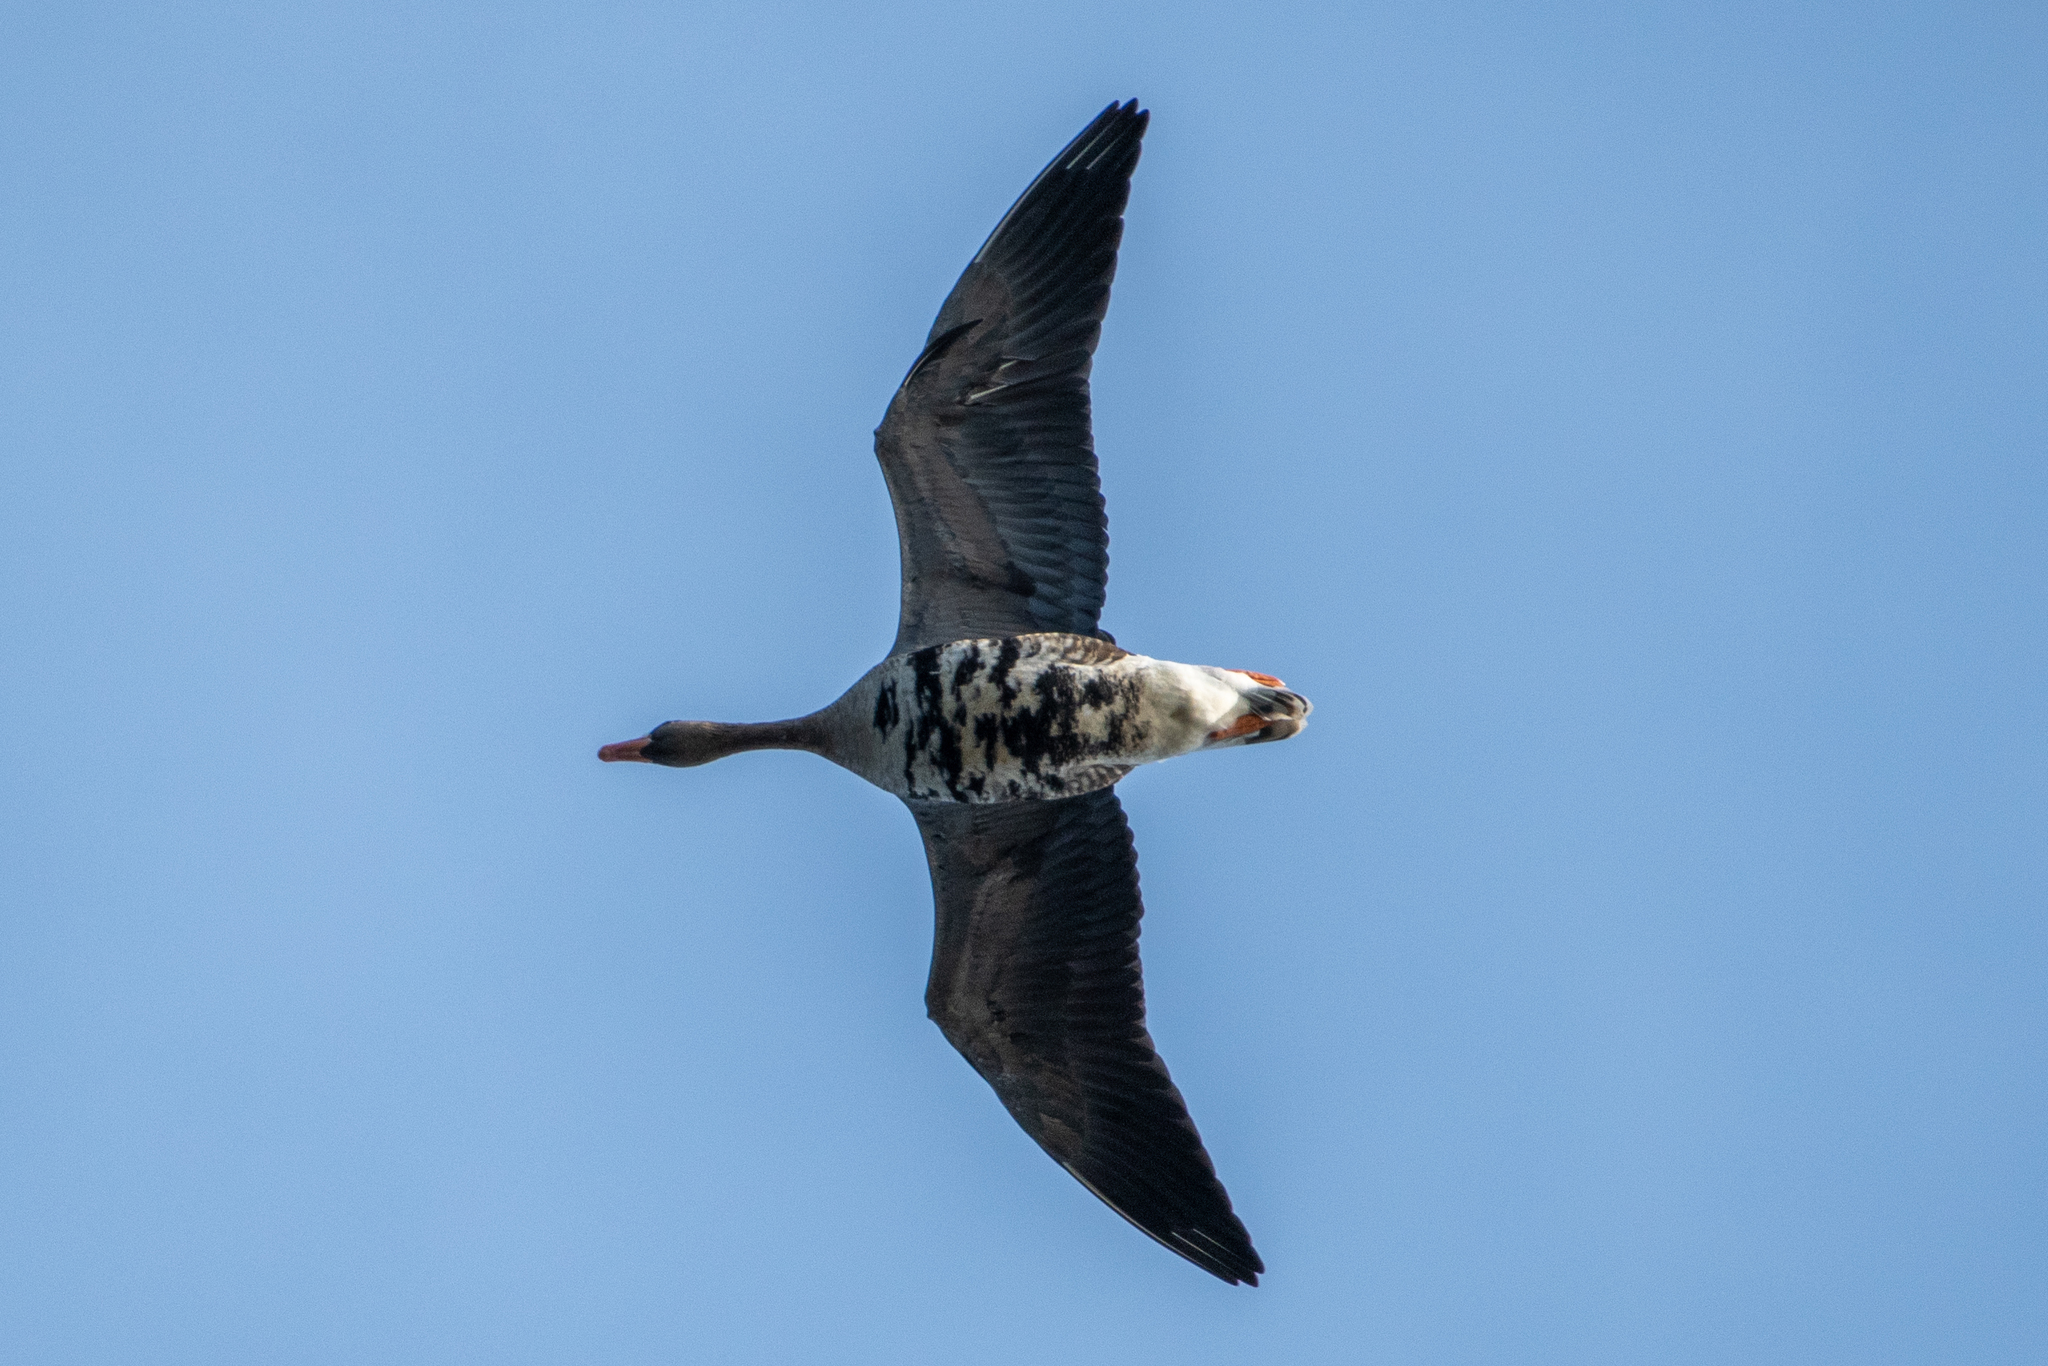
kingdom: Animalia
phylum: Chordata
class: Aves
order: Anseriformes
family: Anatidae
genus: Anser
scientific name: Anser albifrons
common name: Greater white-fronted goose
